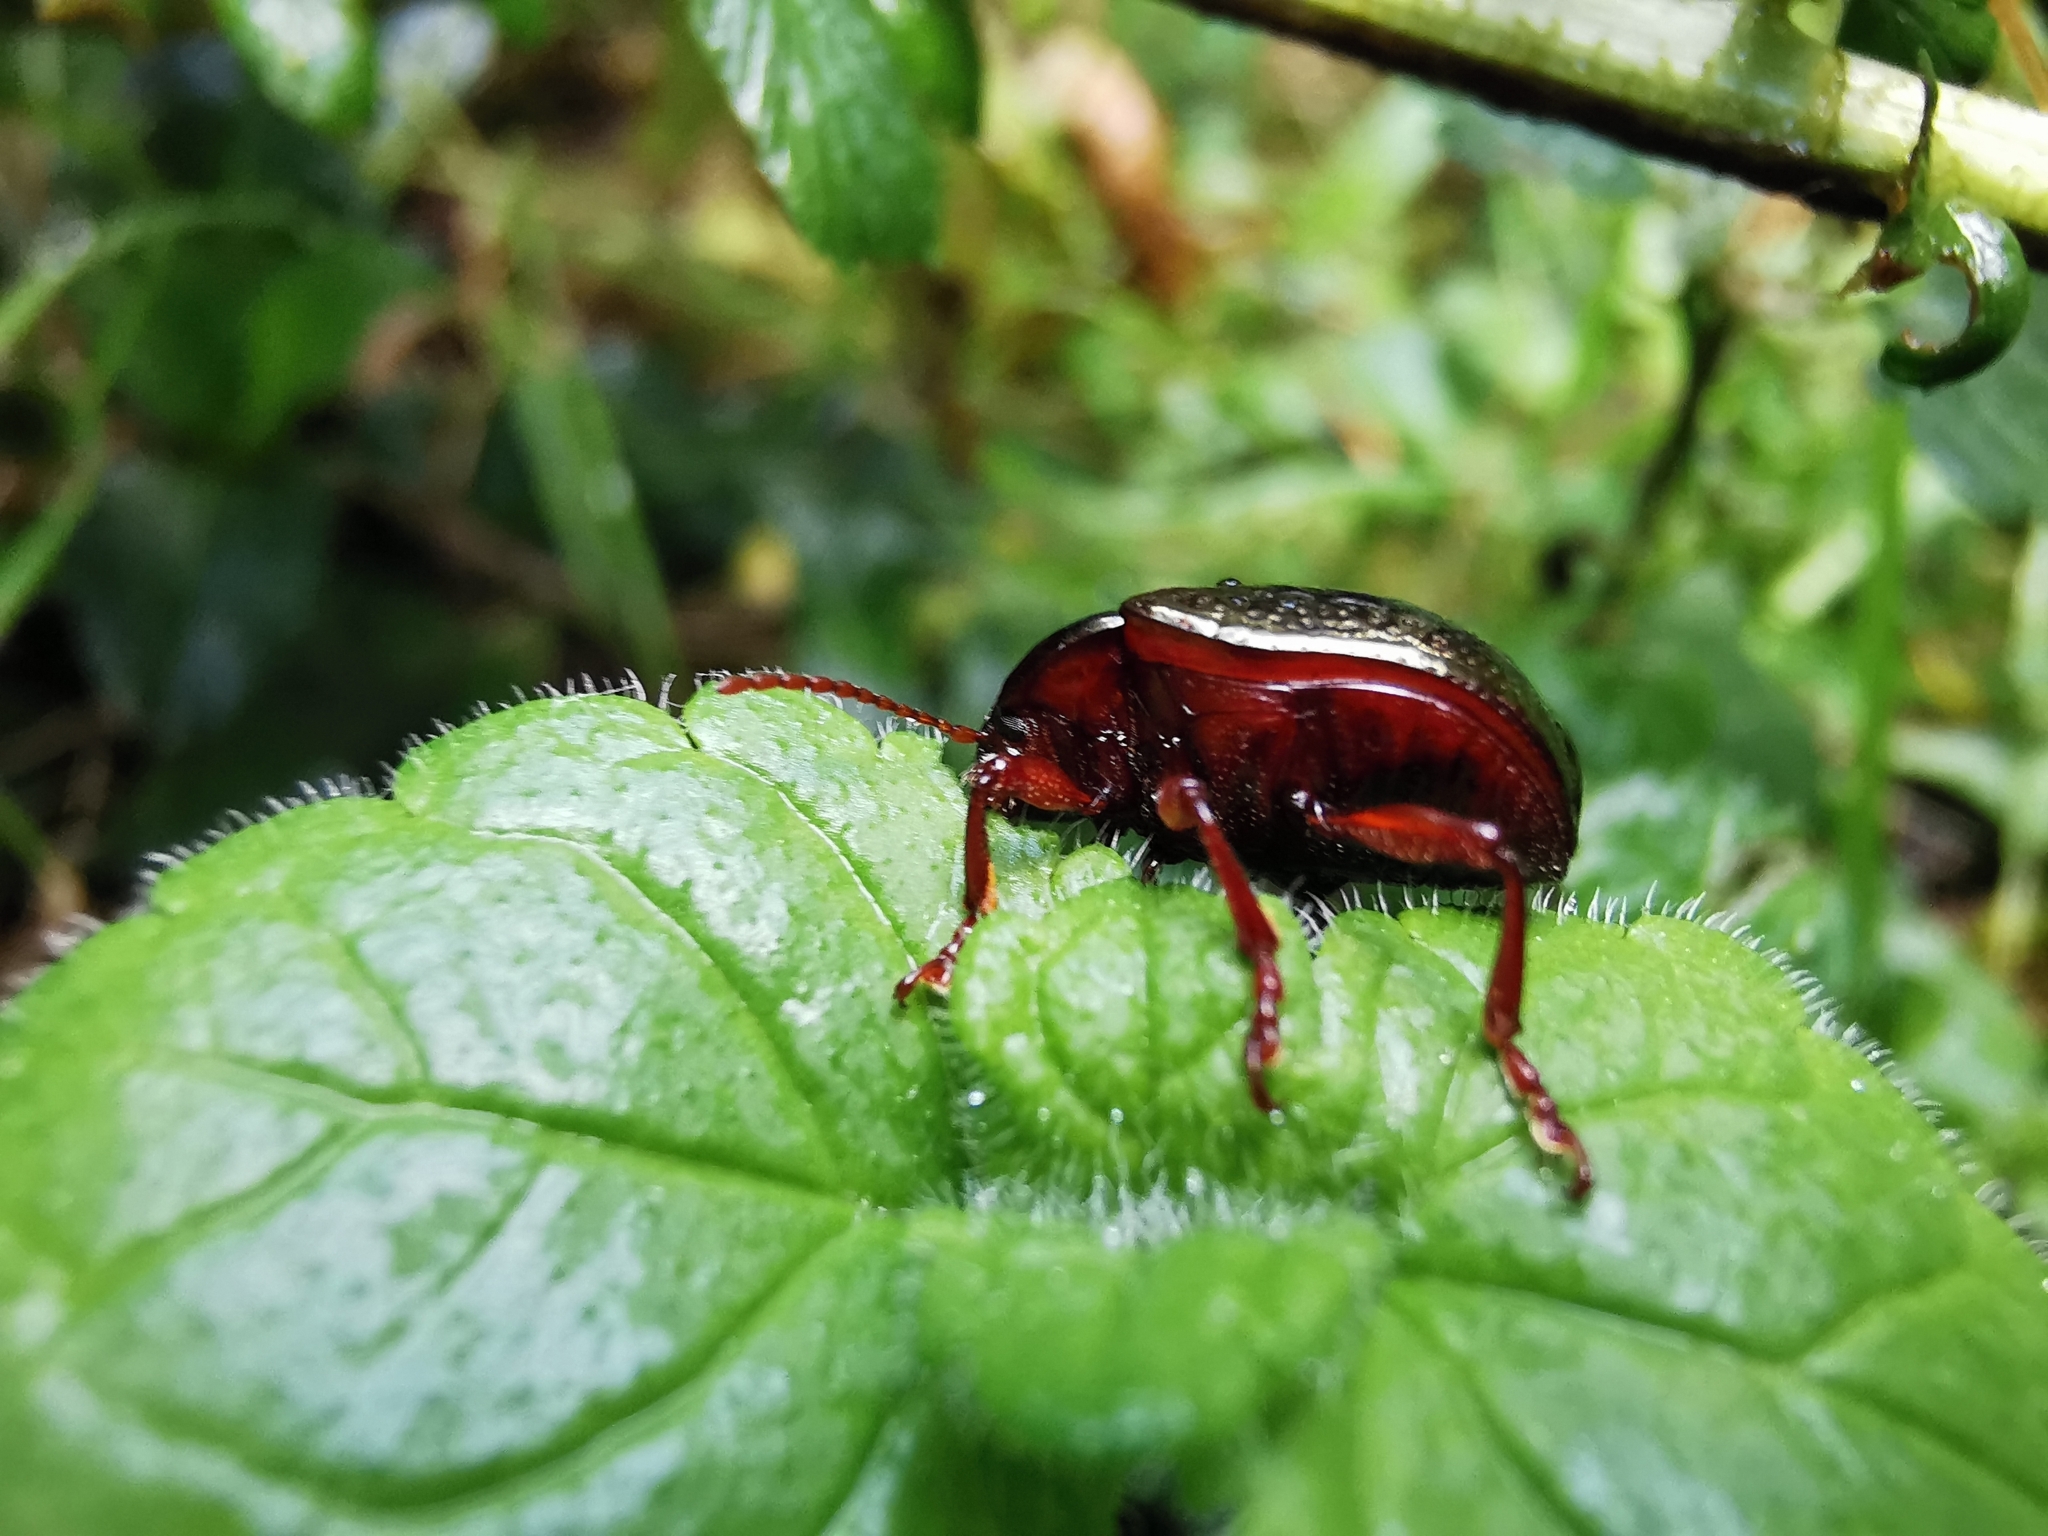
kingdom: Animalia
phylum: Arthropoda
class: Insecta
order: Coleoptera
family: Chrysomelidae
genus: Chrysolina
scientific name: Chrysolina bankii
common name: Leaf beetle
